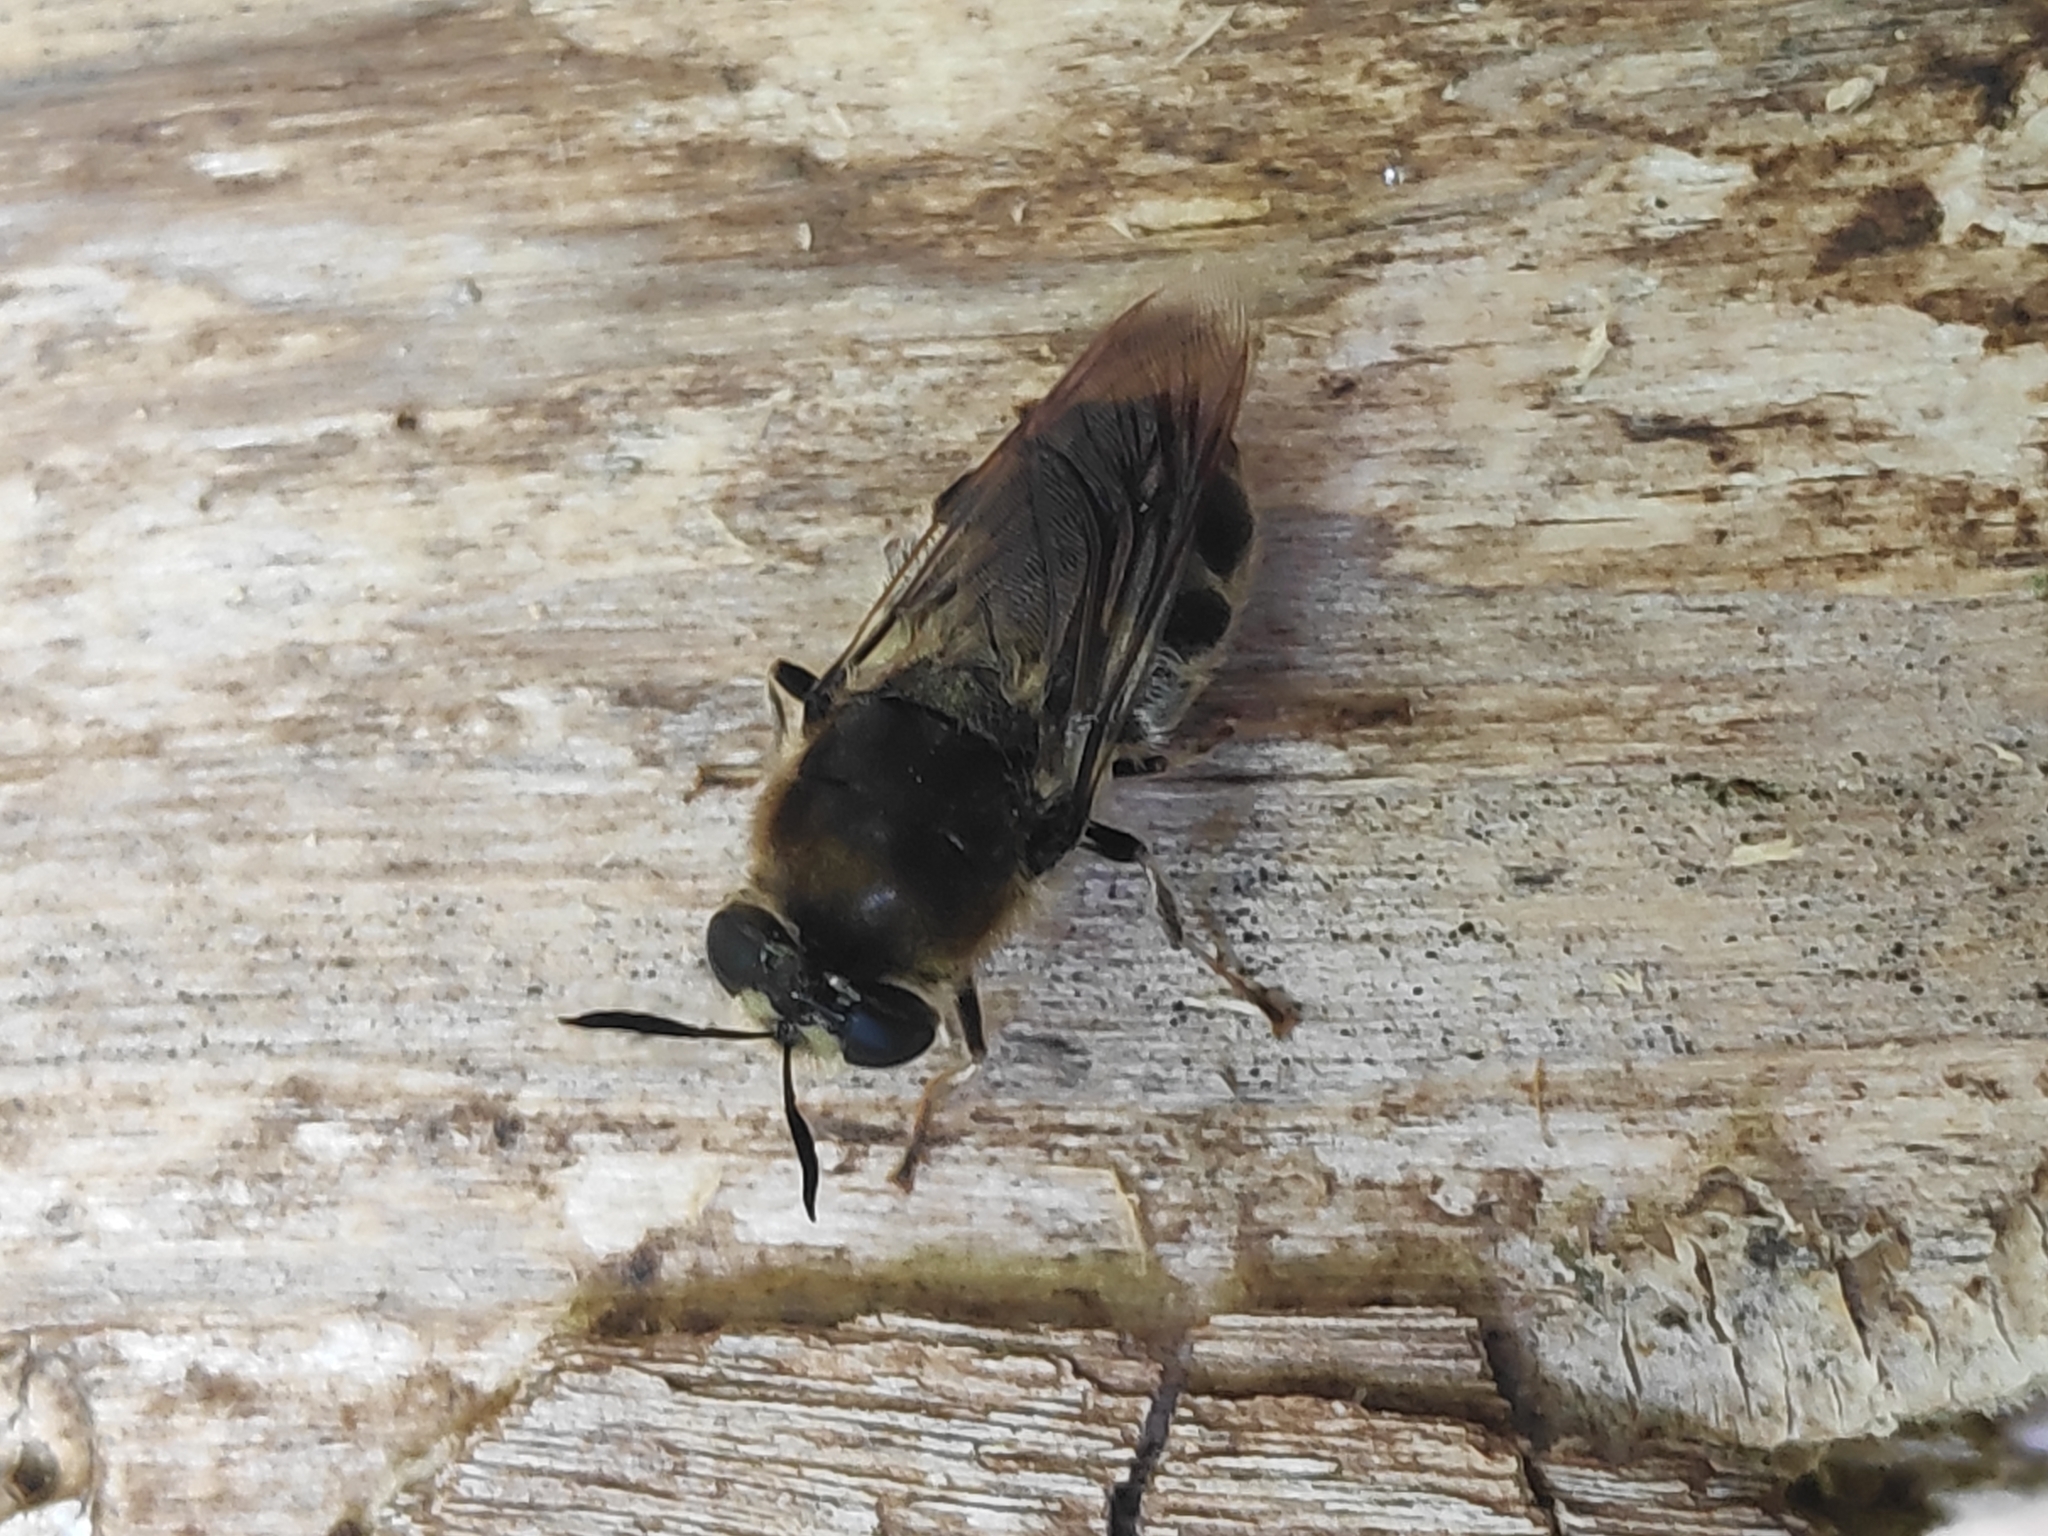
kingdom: Animalia
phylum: Arthropoda
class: Insecta
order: Diptera
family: Stratiomyidae
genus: Stratiomys
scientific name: Stratiomys longicornis
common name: Long-horned general
